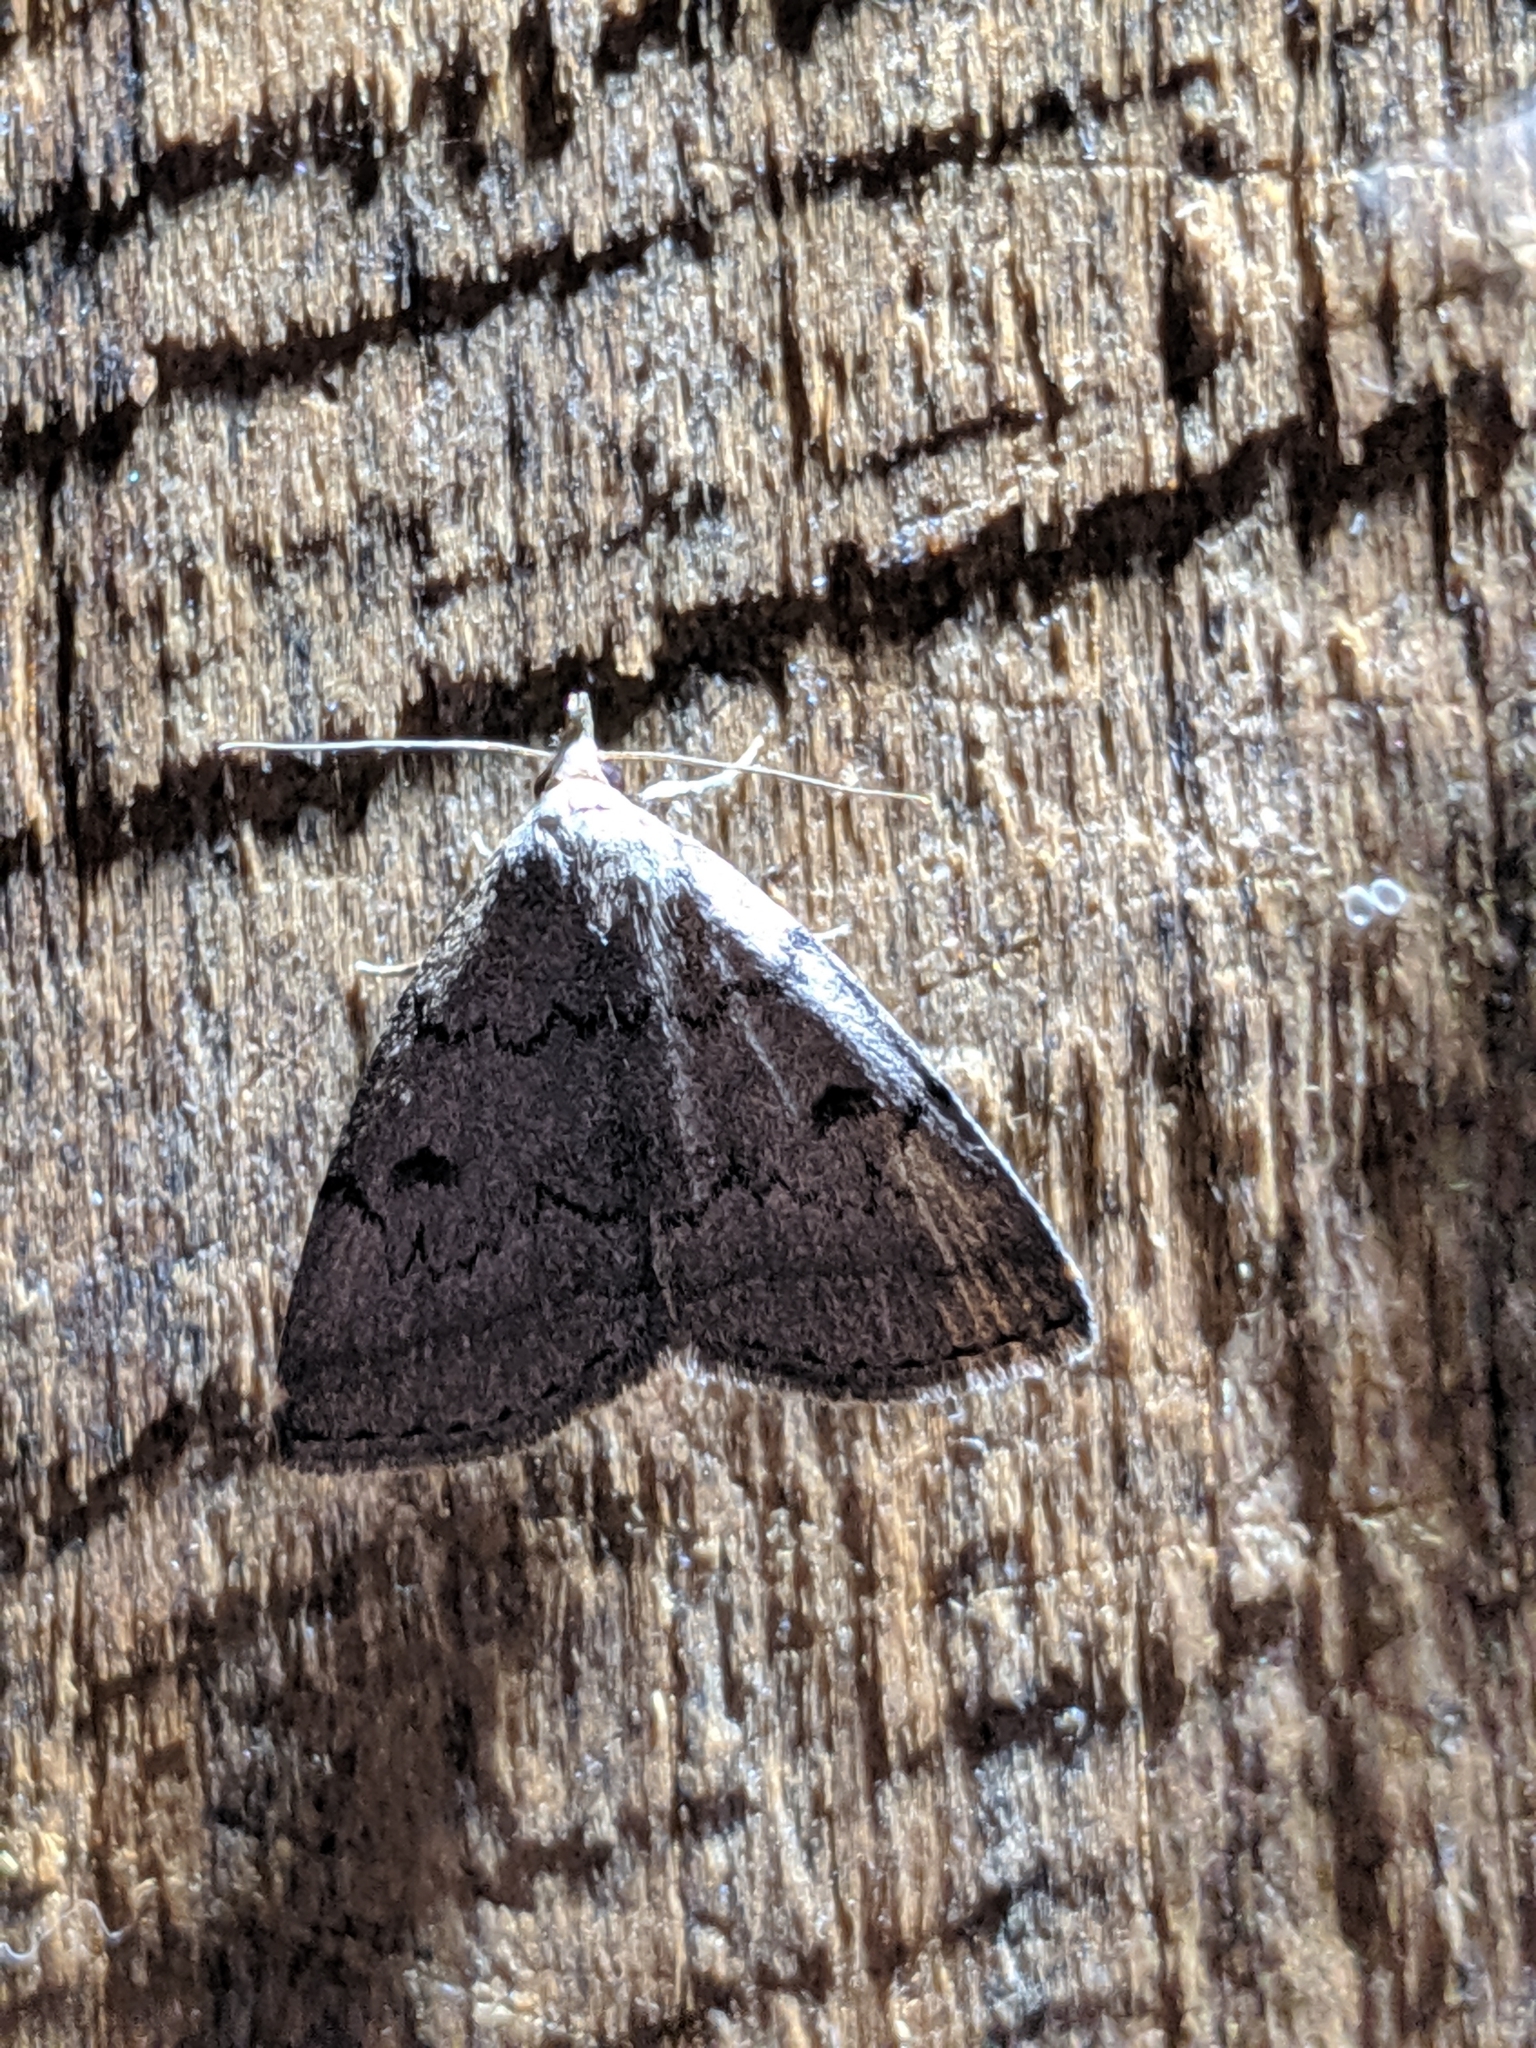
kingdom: Animalia
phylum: Arthropoda
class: Insecta
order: Lepidoptera
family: Erebidae
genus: Zanclognatha
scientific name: Zanclognatha dentata
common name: Toothed fan-foot
